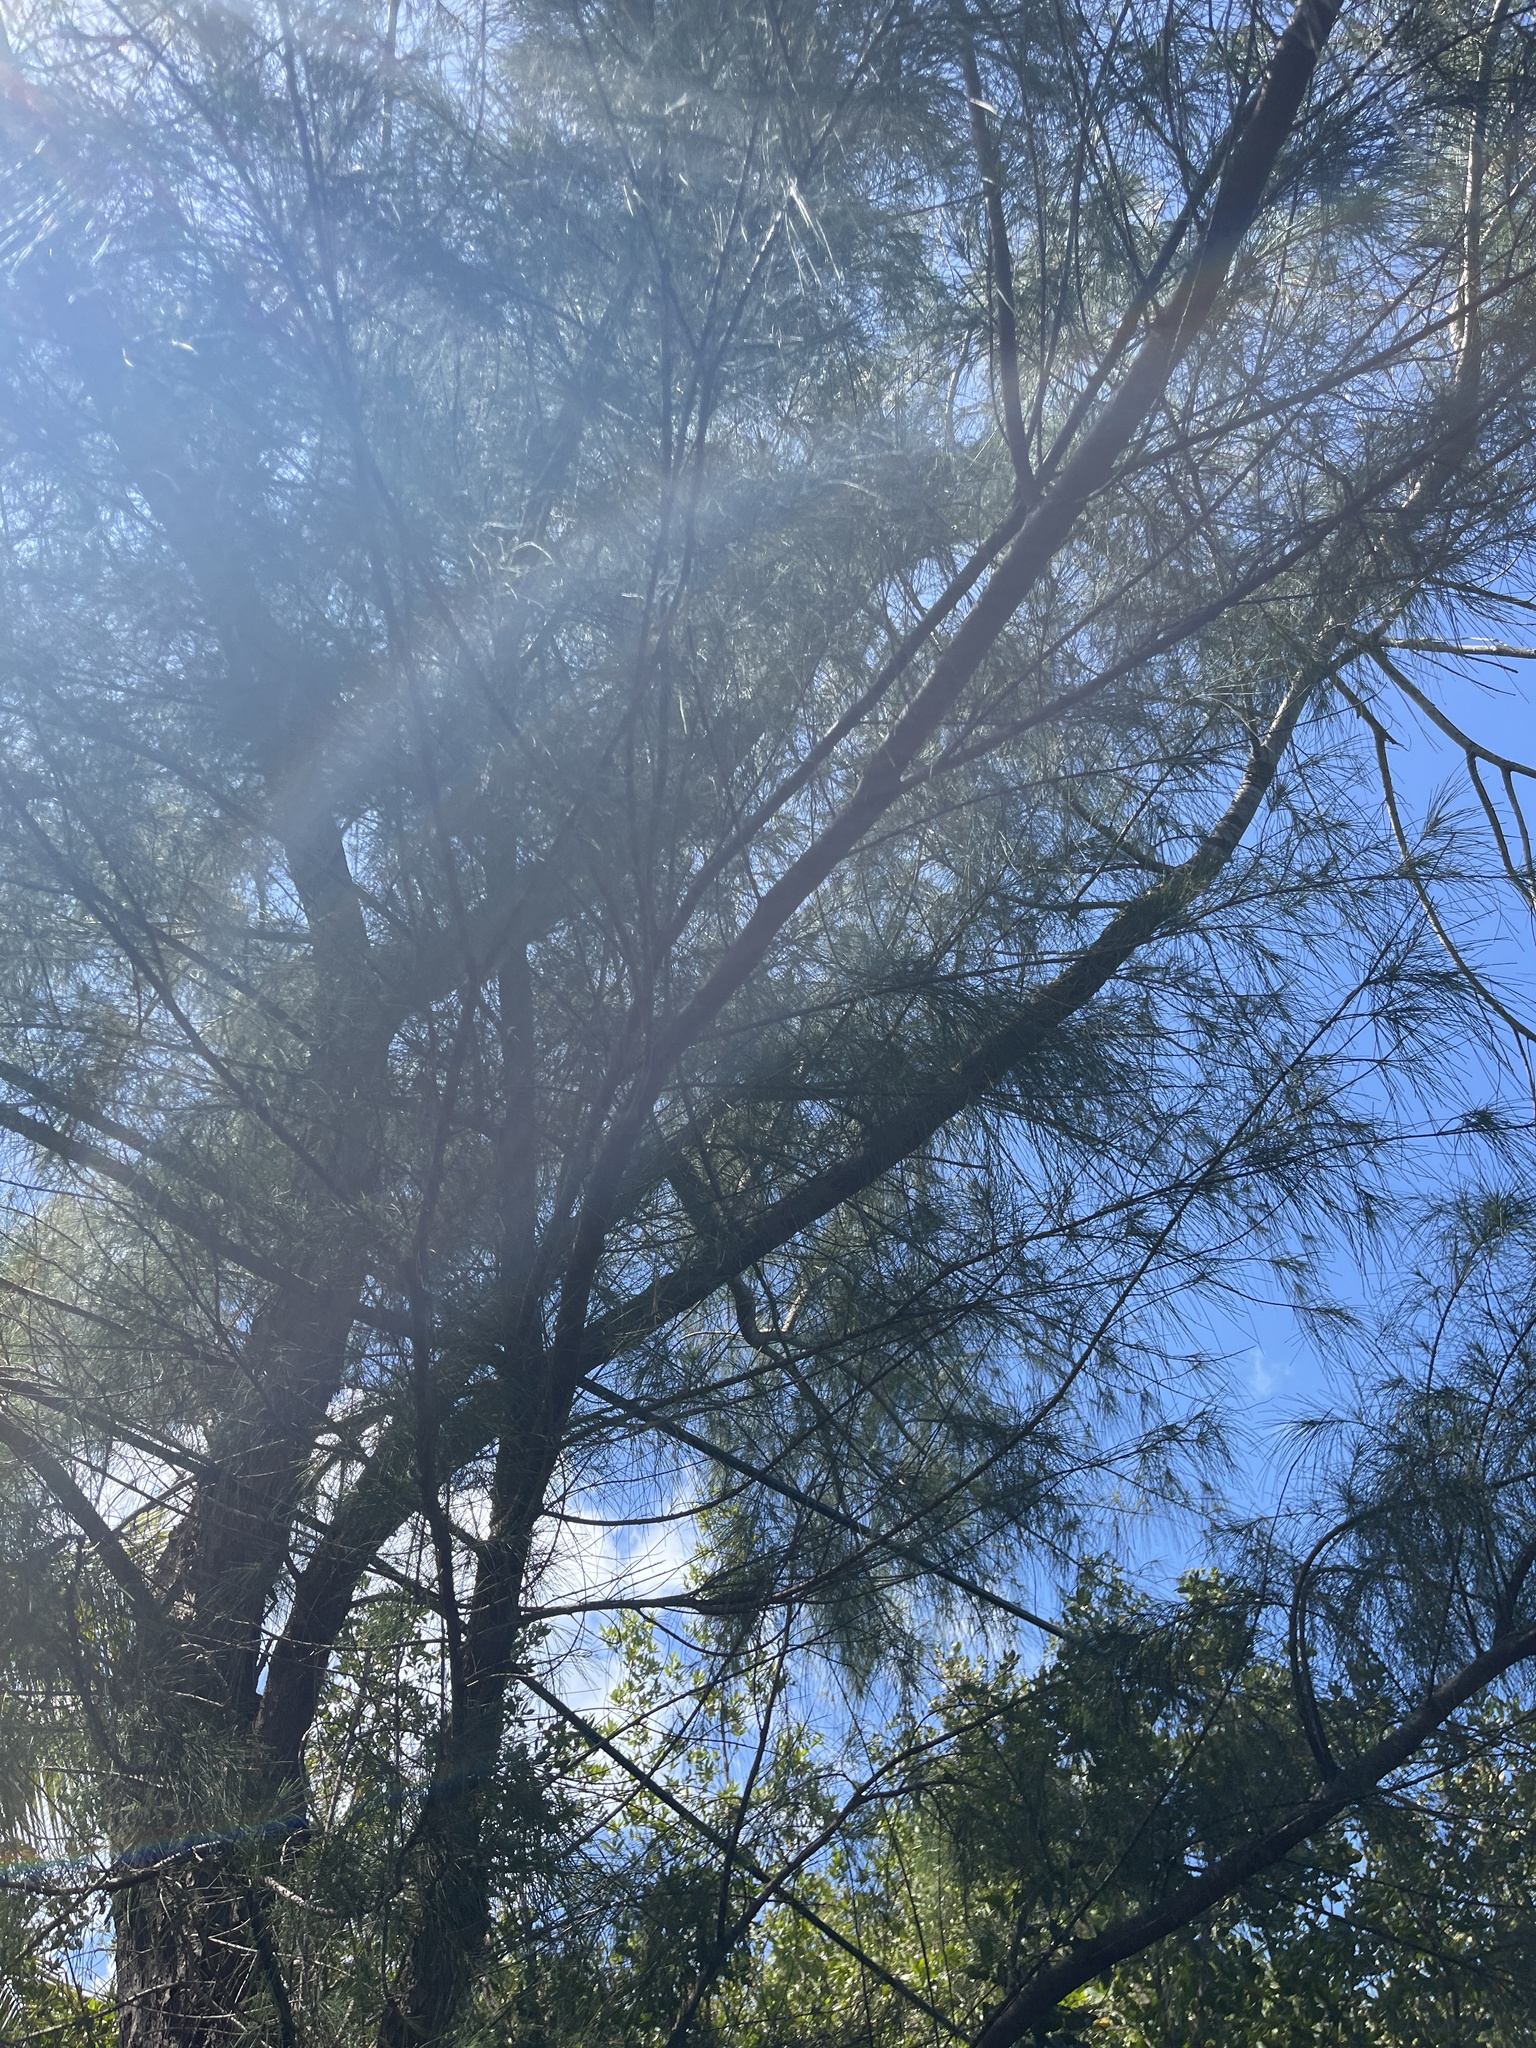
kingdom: Plantae
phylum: Tracheophyta
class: Magnoliopsida
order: Fagales
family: Casuarinaceae
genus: Casuarina
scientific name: Casuarina equisetifolia
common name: Beach sheoak
